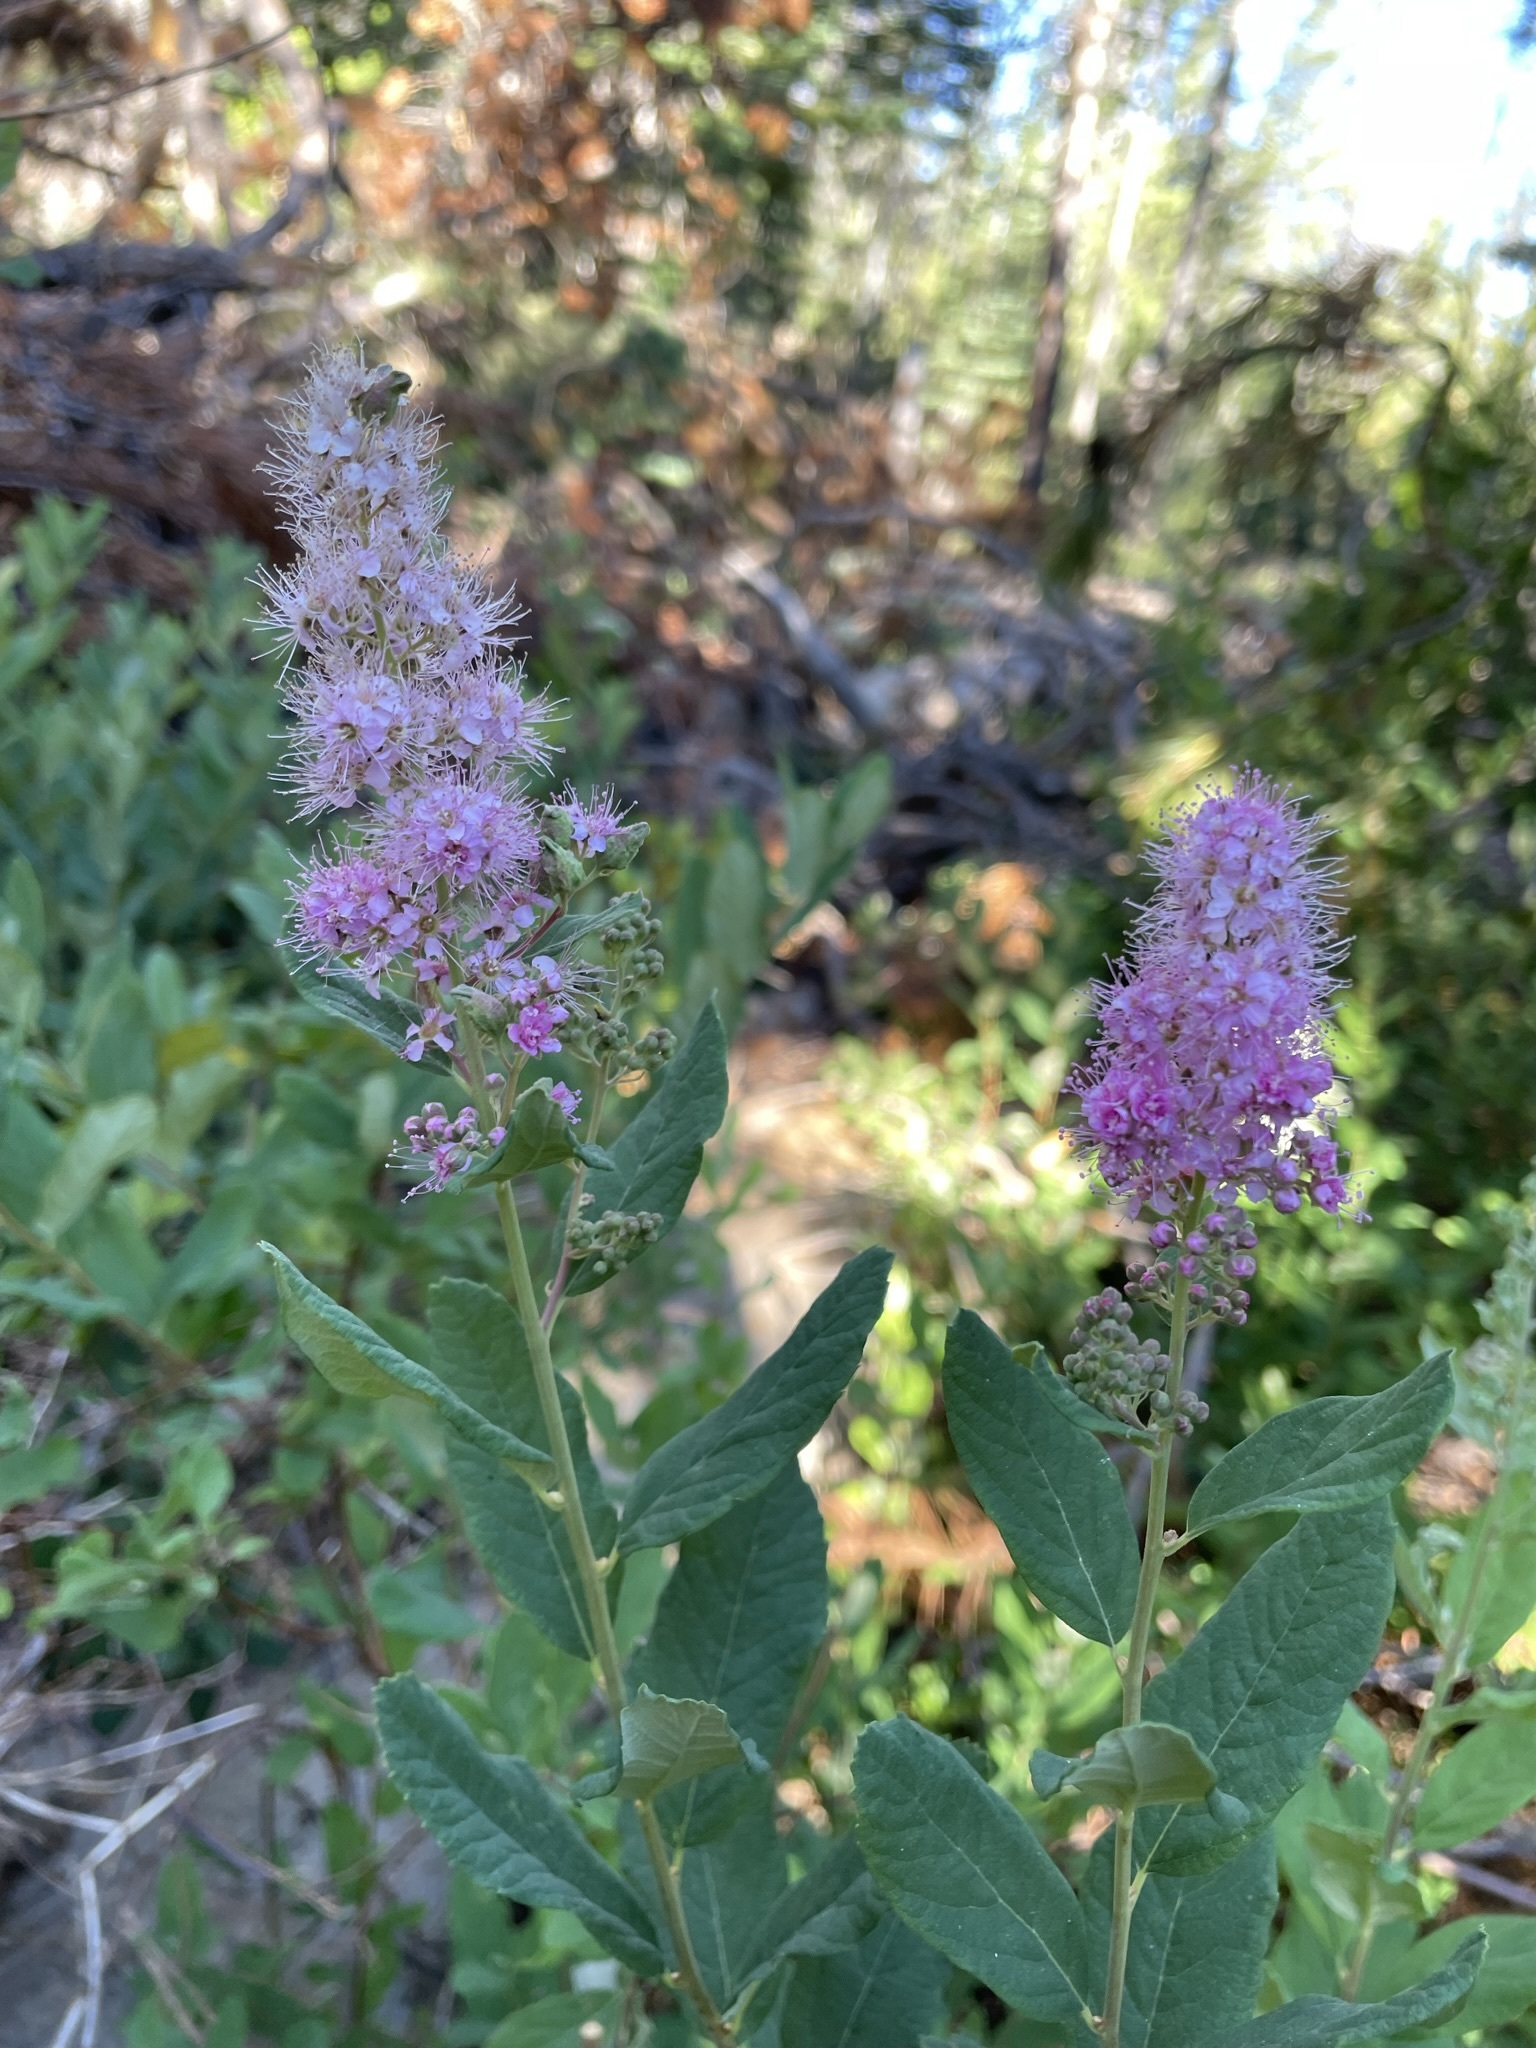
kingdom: Plantae
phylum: Tracheophyta
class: Magnoliopsida
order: Rosales
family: Rosaceae
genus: Spiraea
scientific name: Spiraea douglasii
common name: Steeplebush
